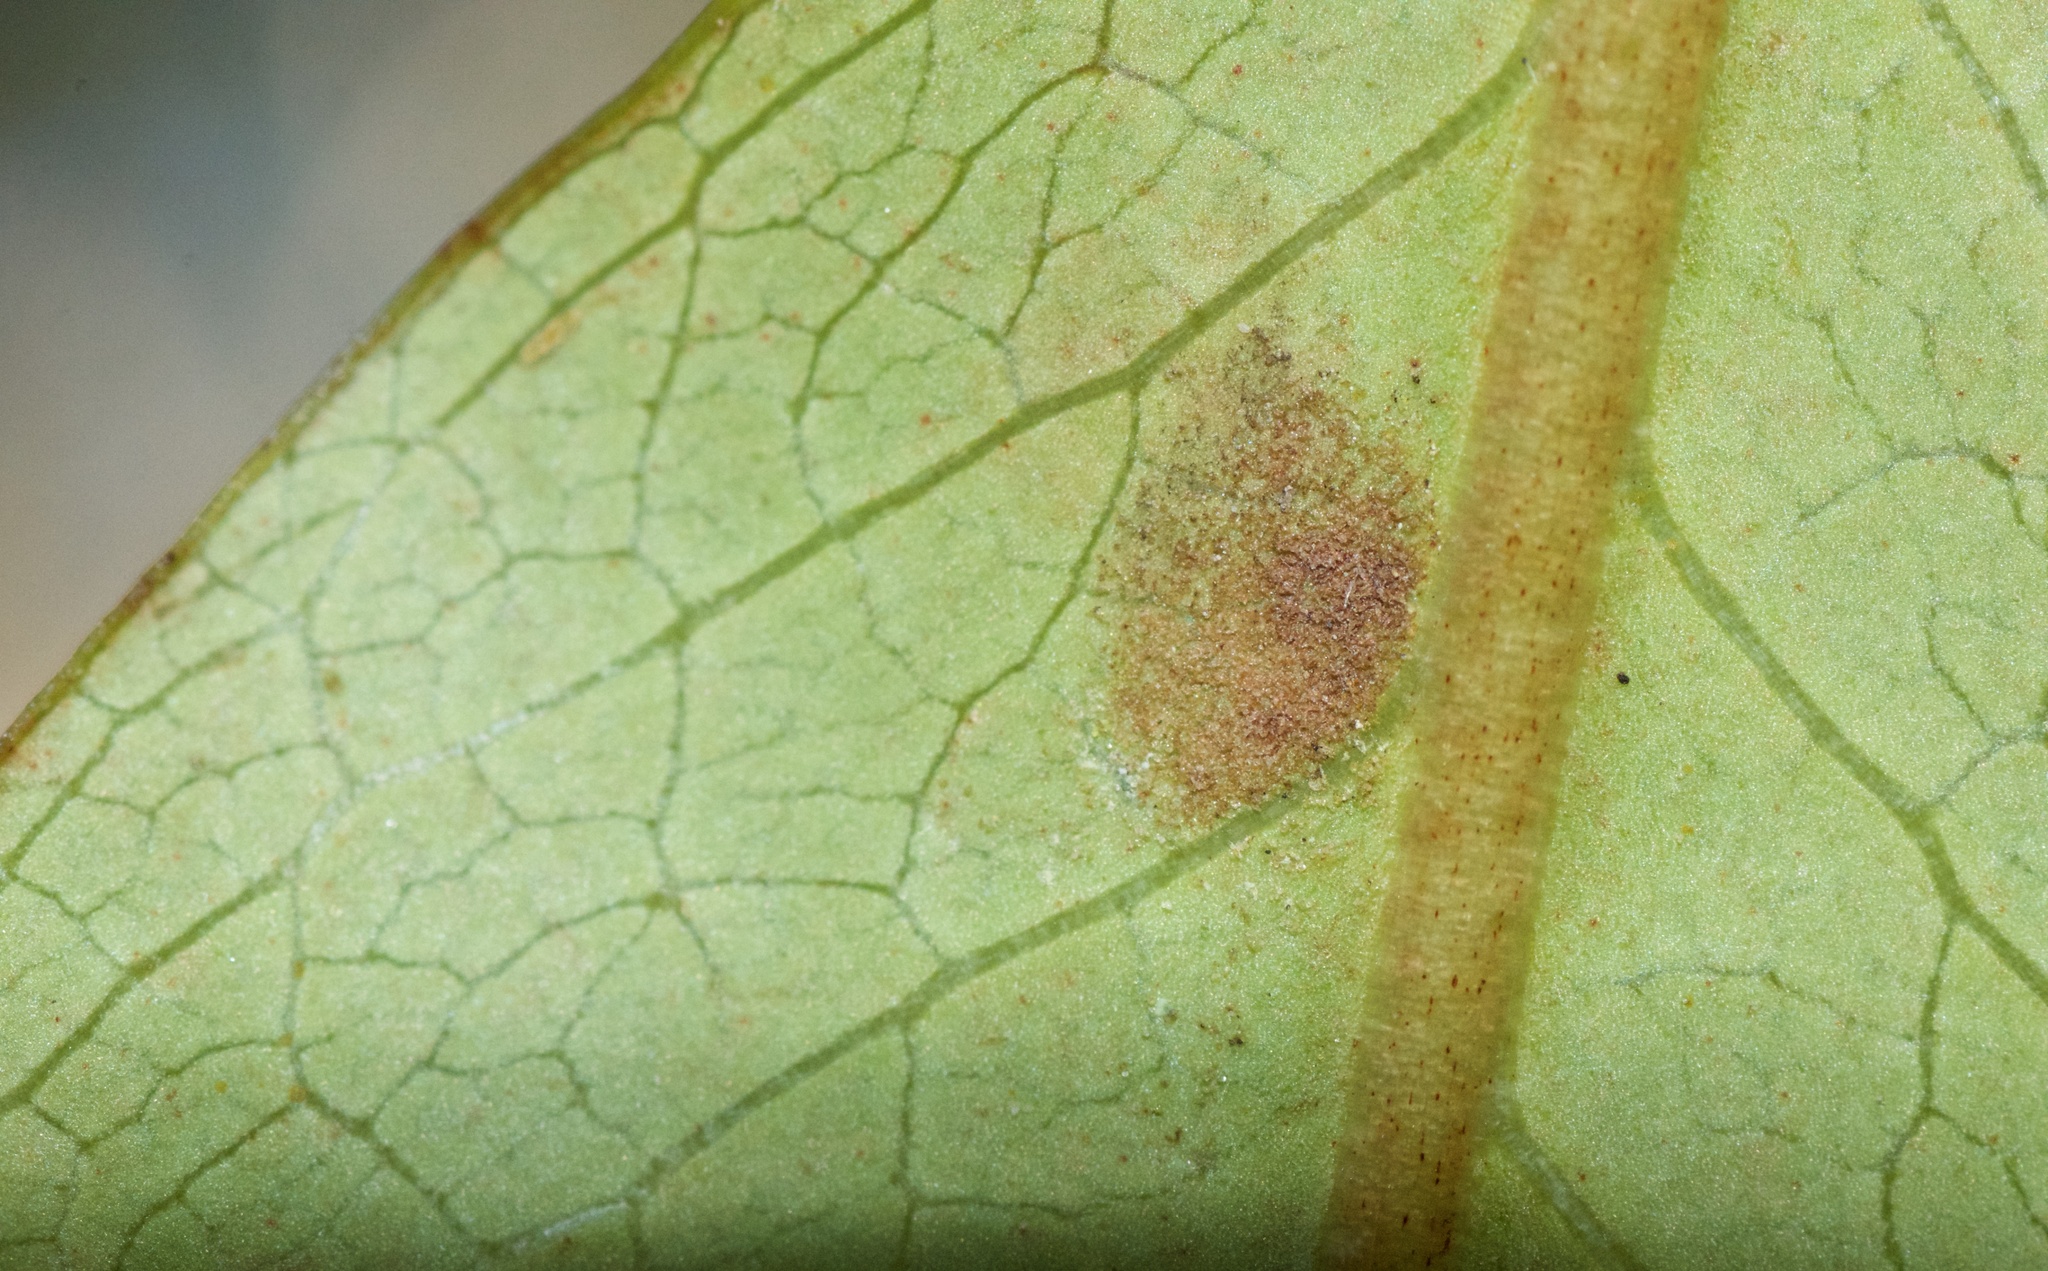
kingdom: Animalia
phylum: Arthropoda
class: Arachnida
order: Trombidiformes
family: Eriophyidae
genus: Phyllocoptes
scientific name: Phyllocoptes coprosmae
